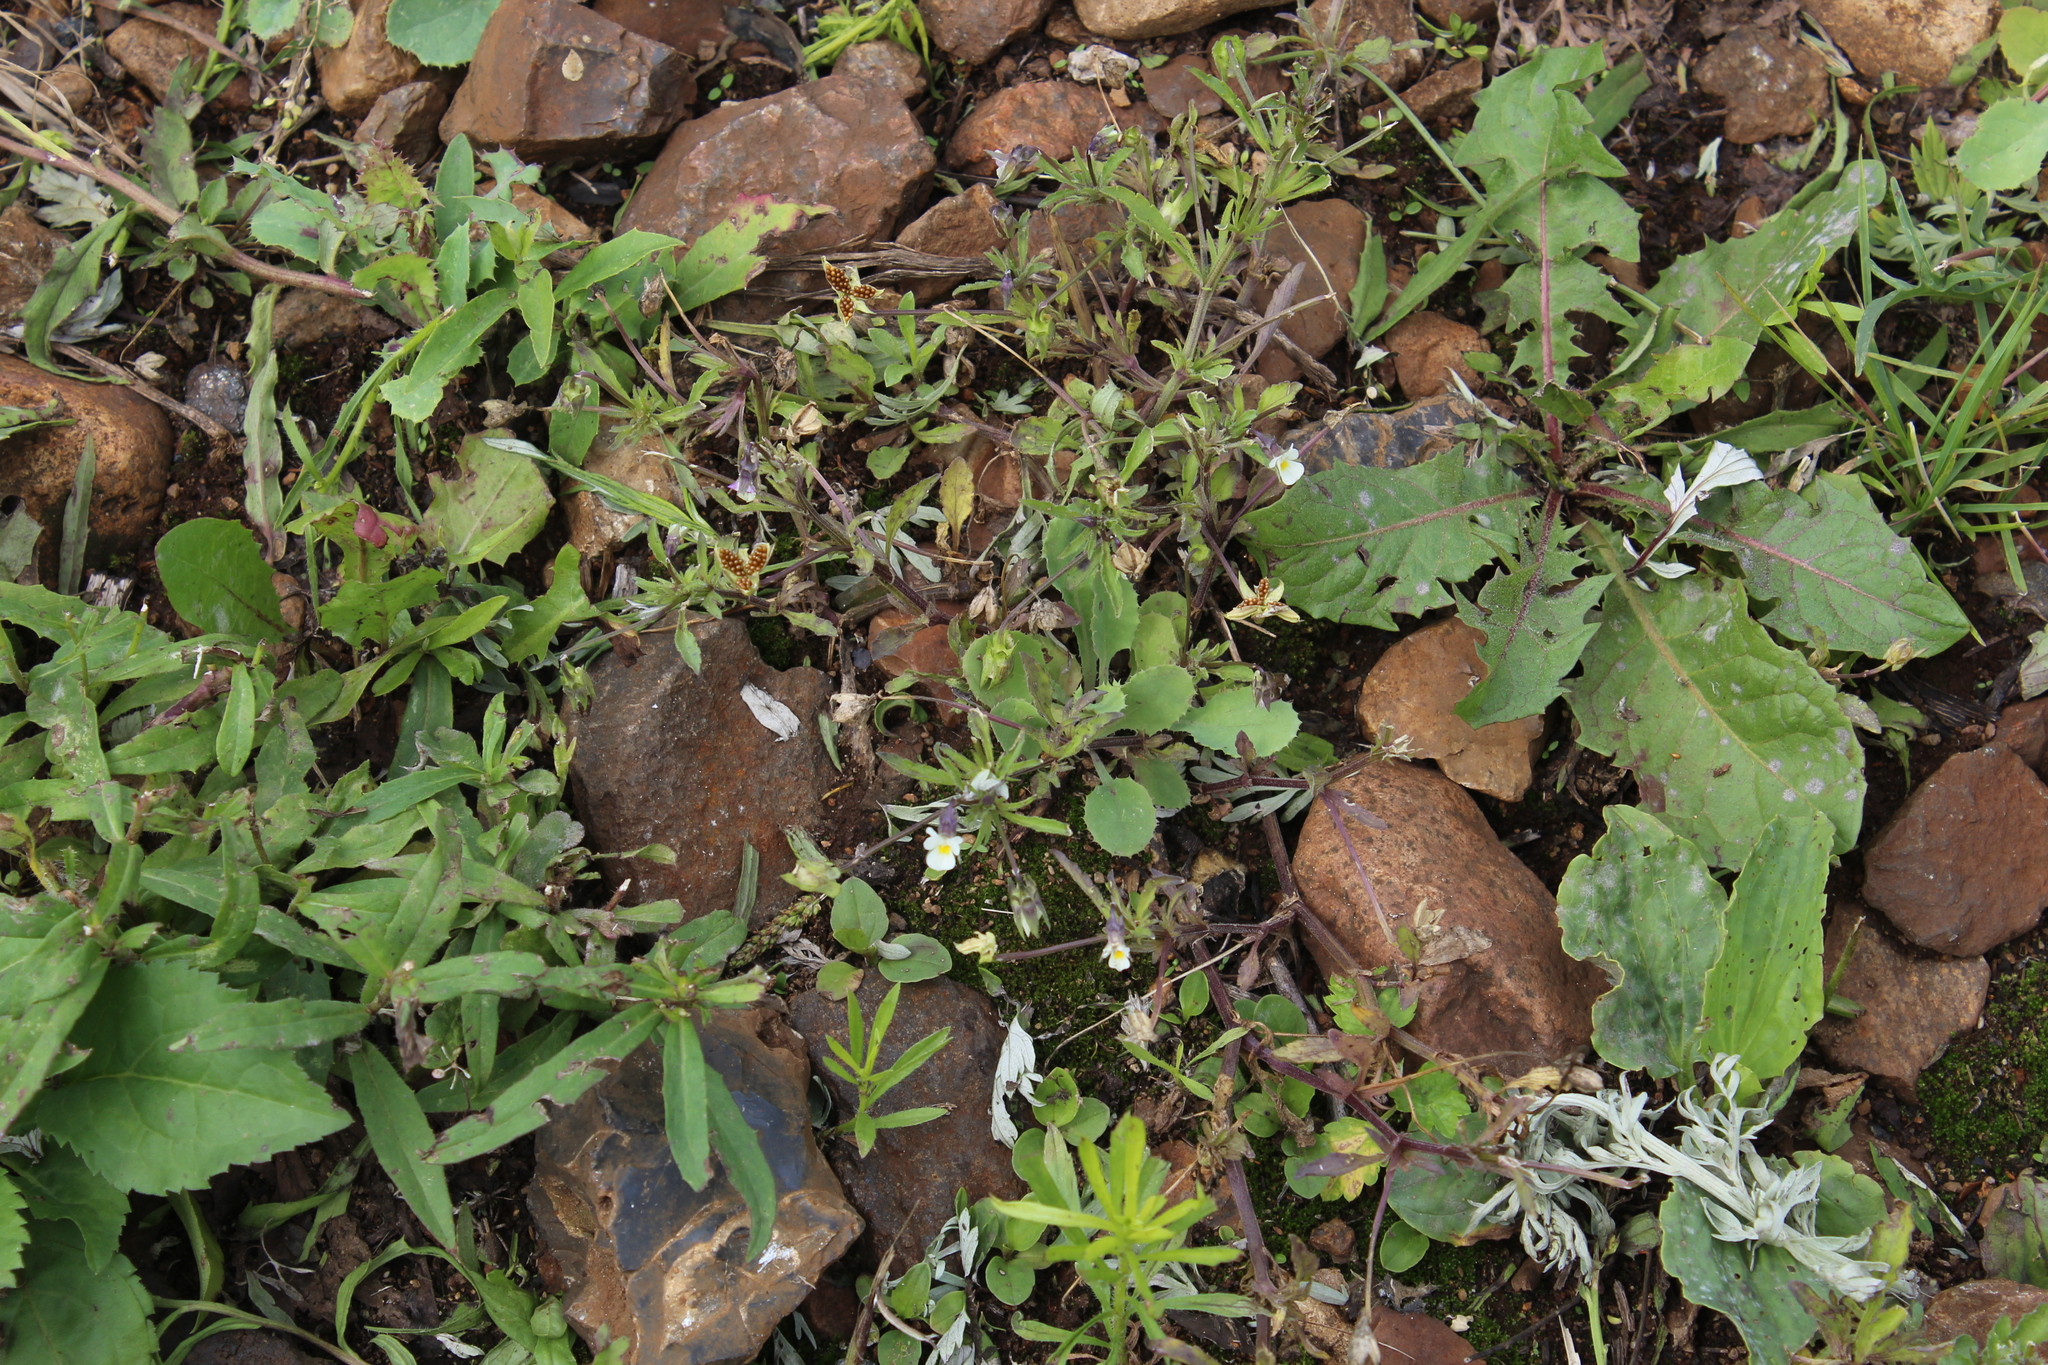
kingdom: Plantae
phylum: Tracheophyta
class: Magnoliopsida
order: Malpighiales
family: Violaceae
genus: Viola
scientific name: Viola arvensis
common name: Field pansy
